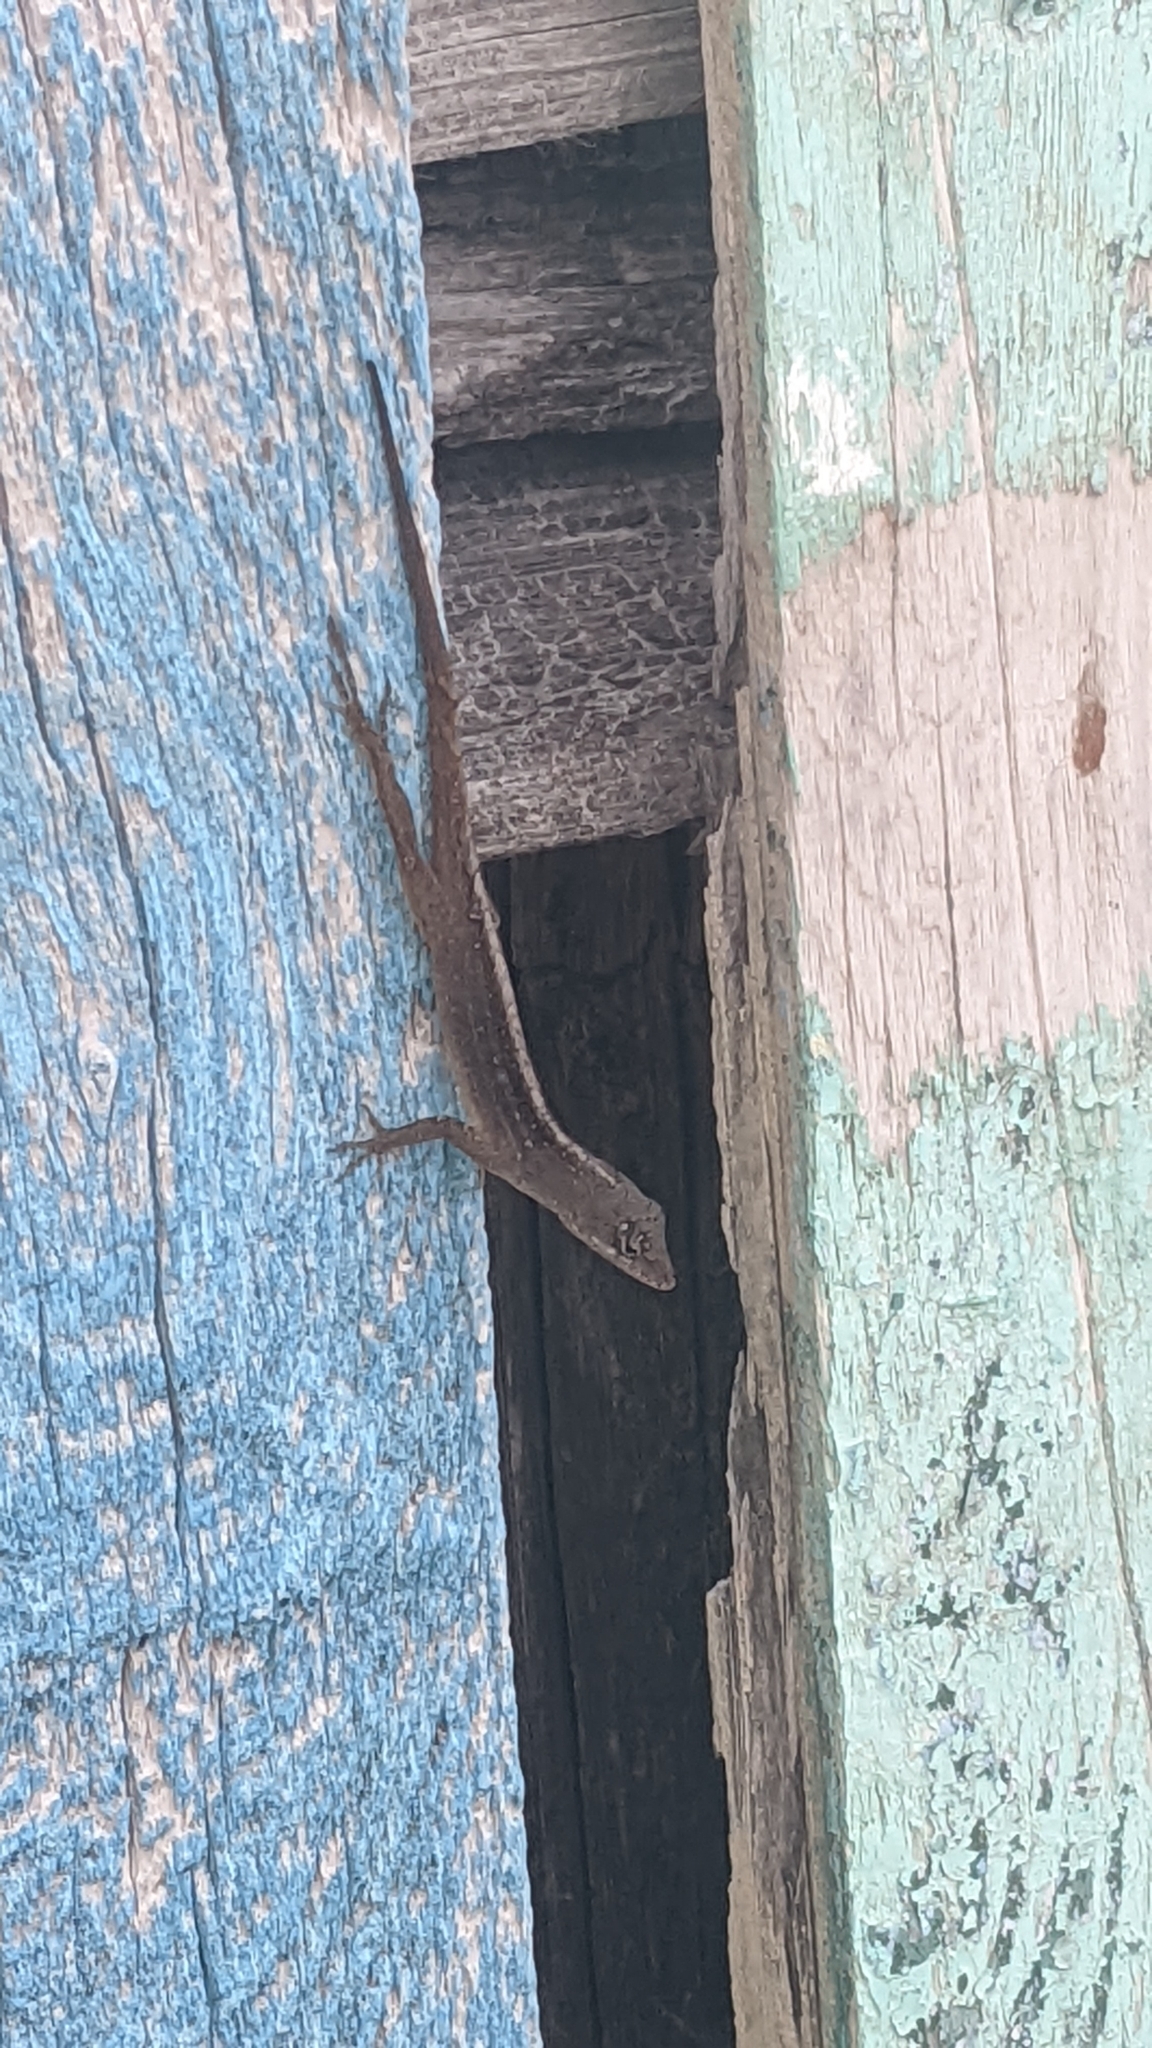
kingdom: Animalia
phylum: Chordata
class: Squamata
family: Dactyloidae
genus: Anolis
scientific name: Anolis sagrei
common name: Brown anole
